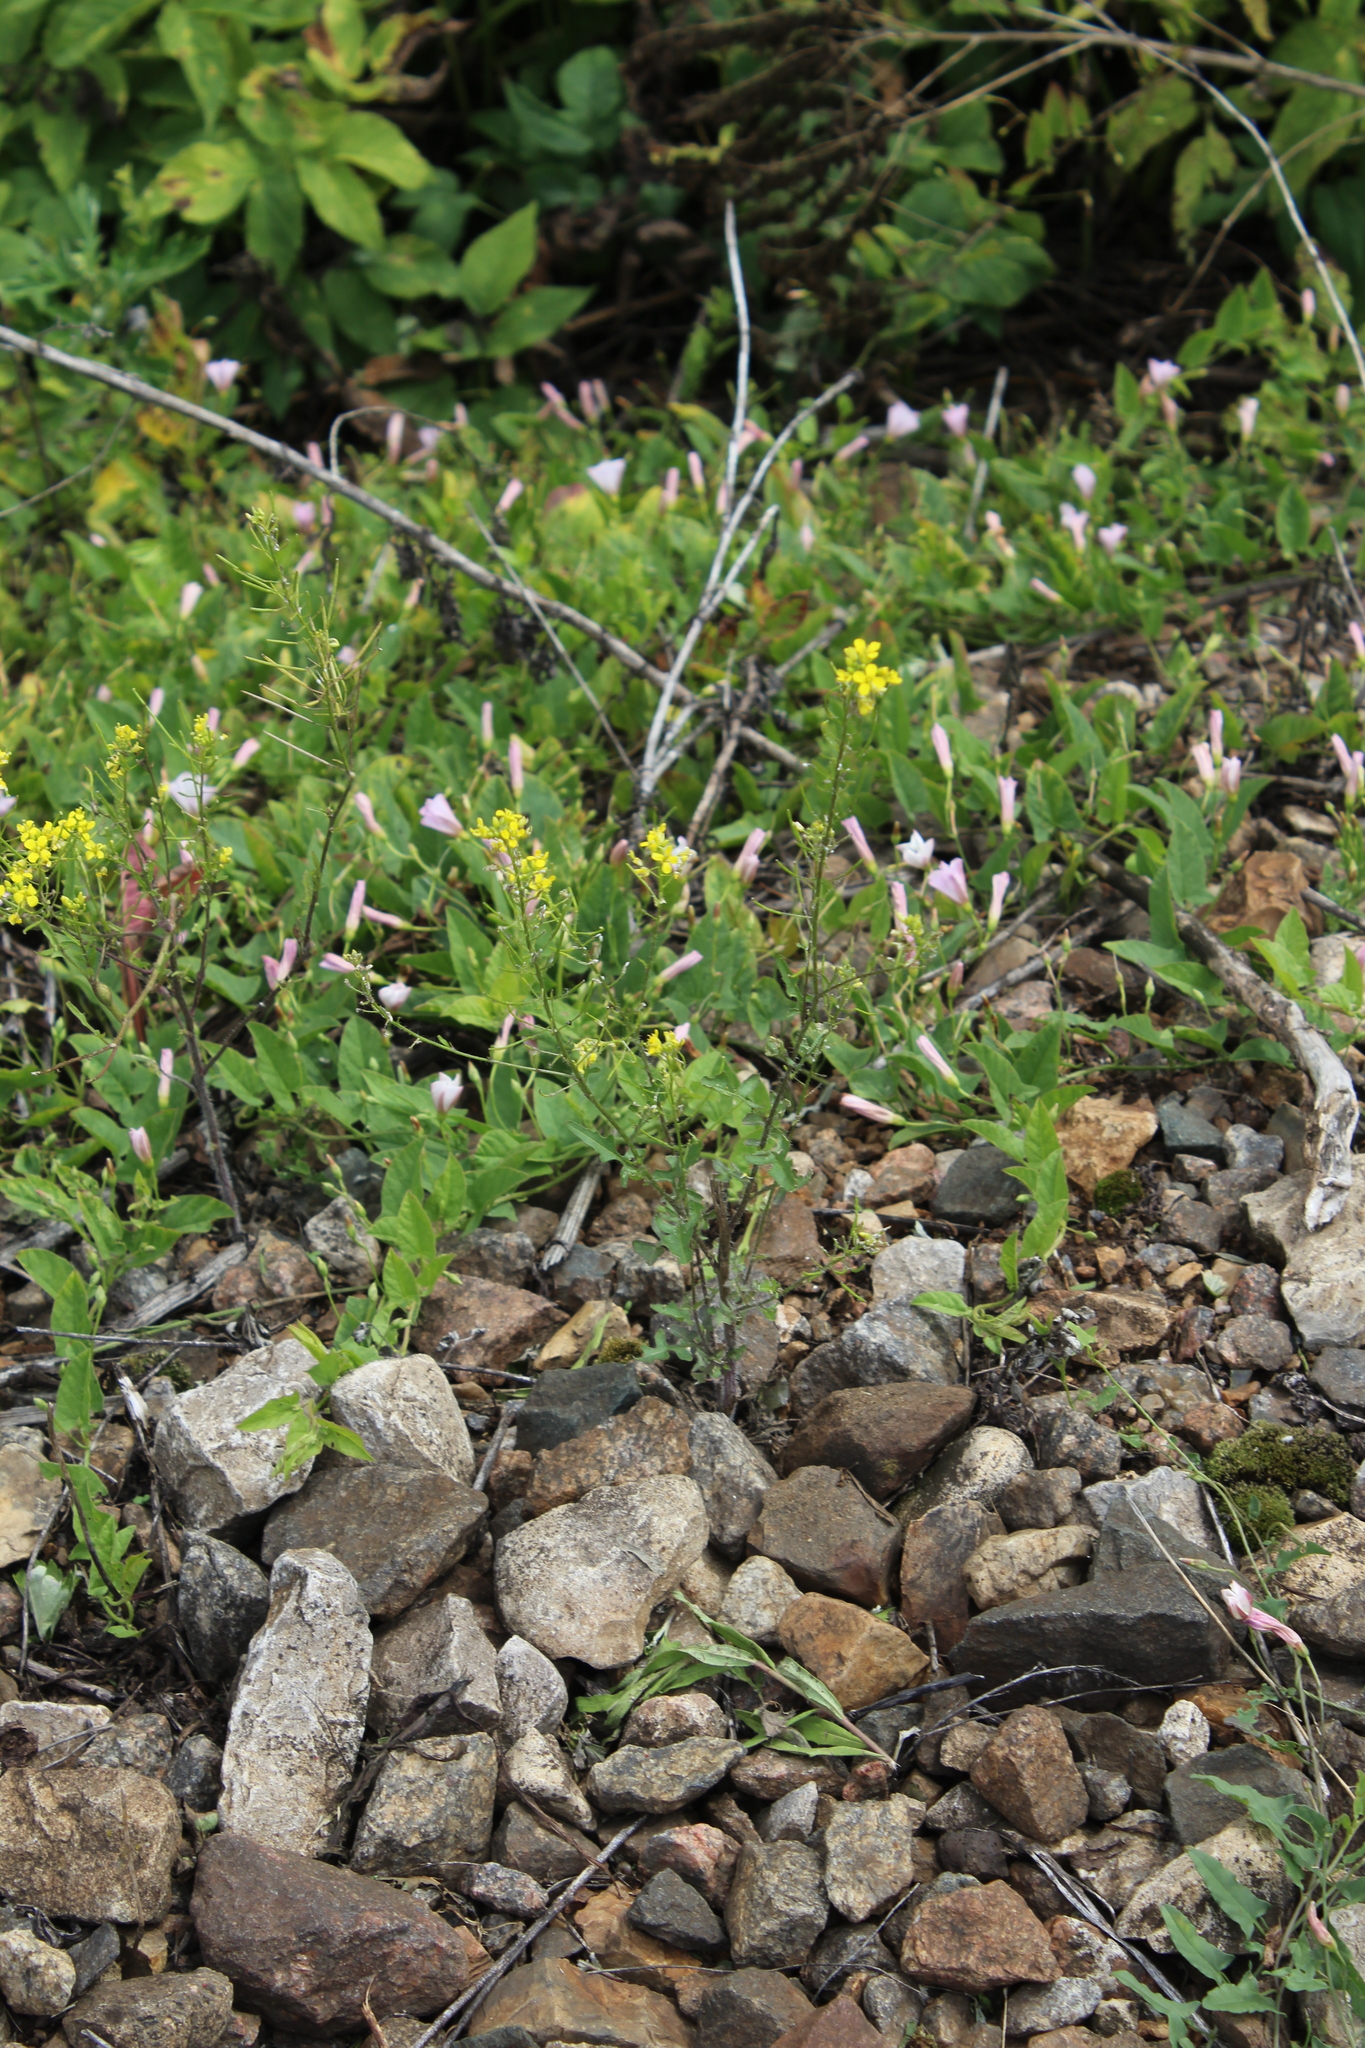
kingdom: Plantae
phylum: Tracheophyta
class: Magnoliopsida
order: Brassicales
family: Brassicaceae
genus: Sisymbrium
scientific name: Sisymbrium loeselii
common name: False london-rocket
